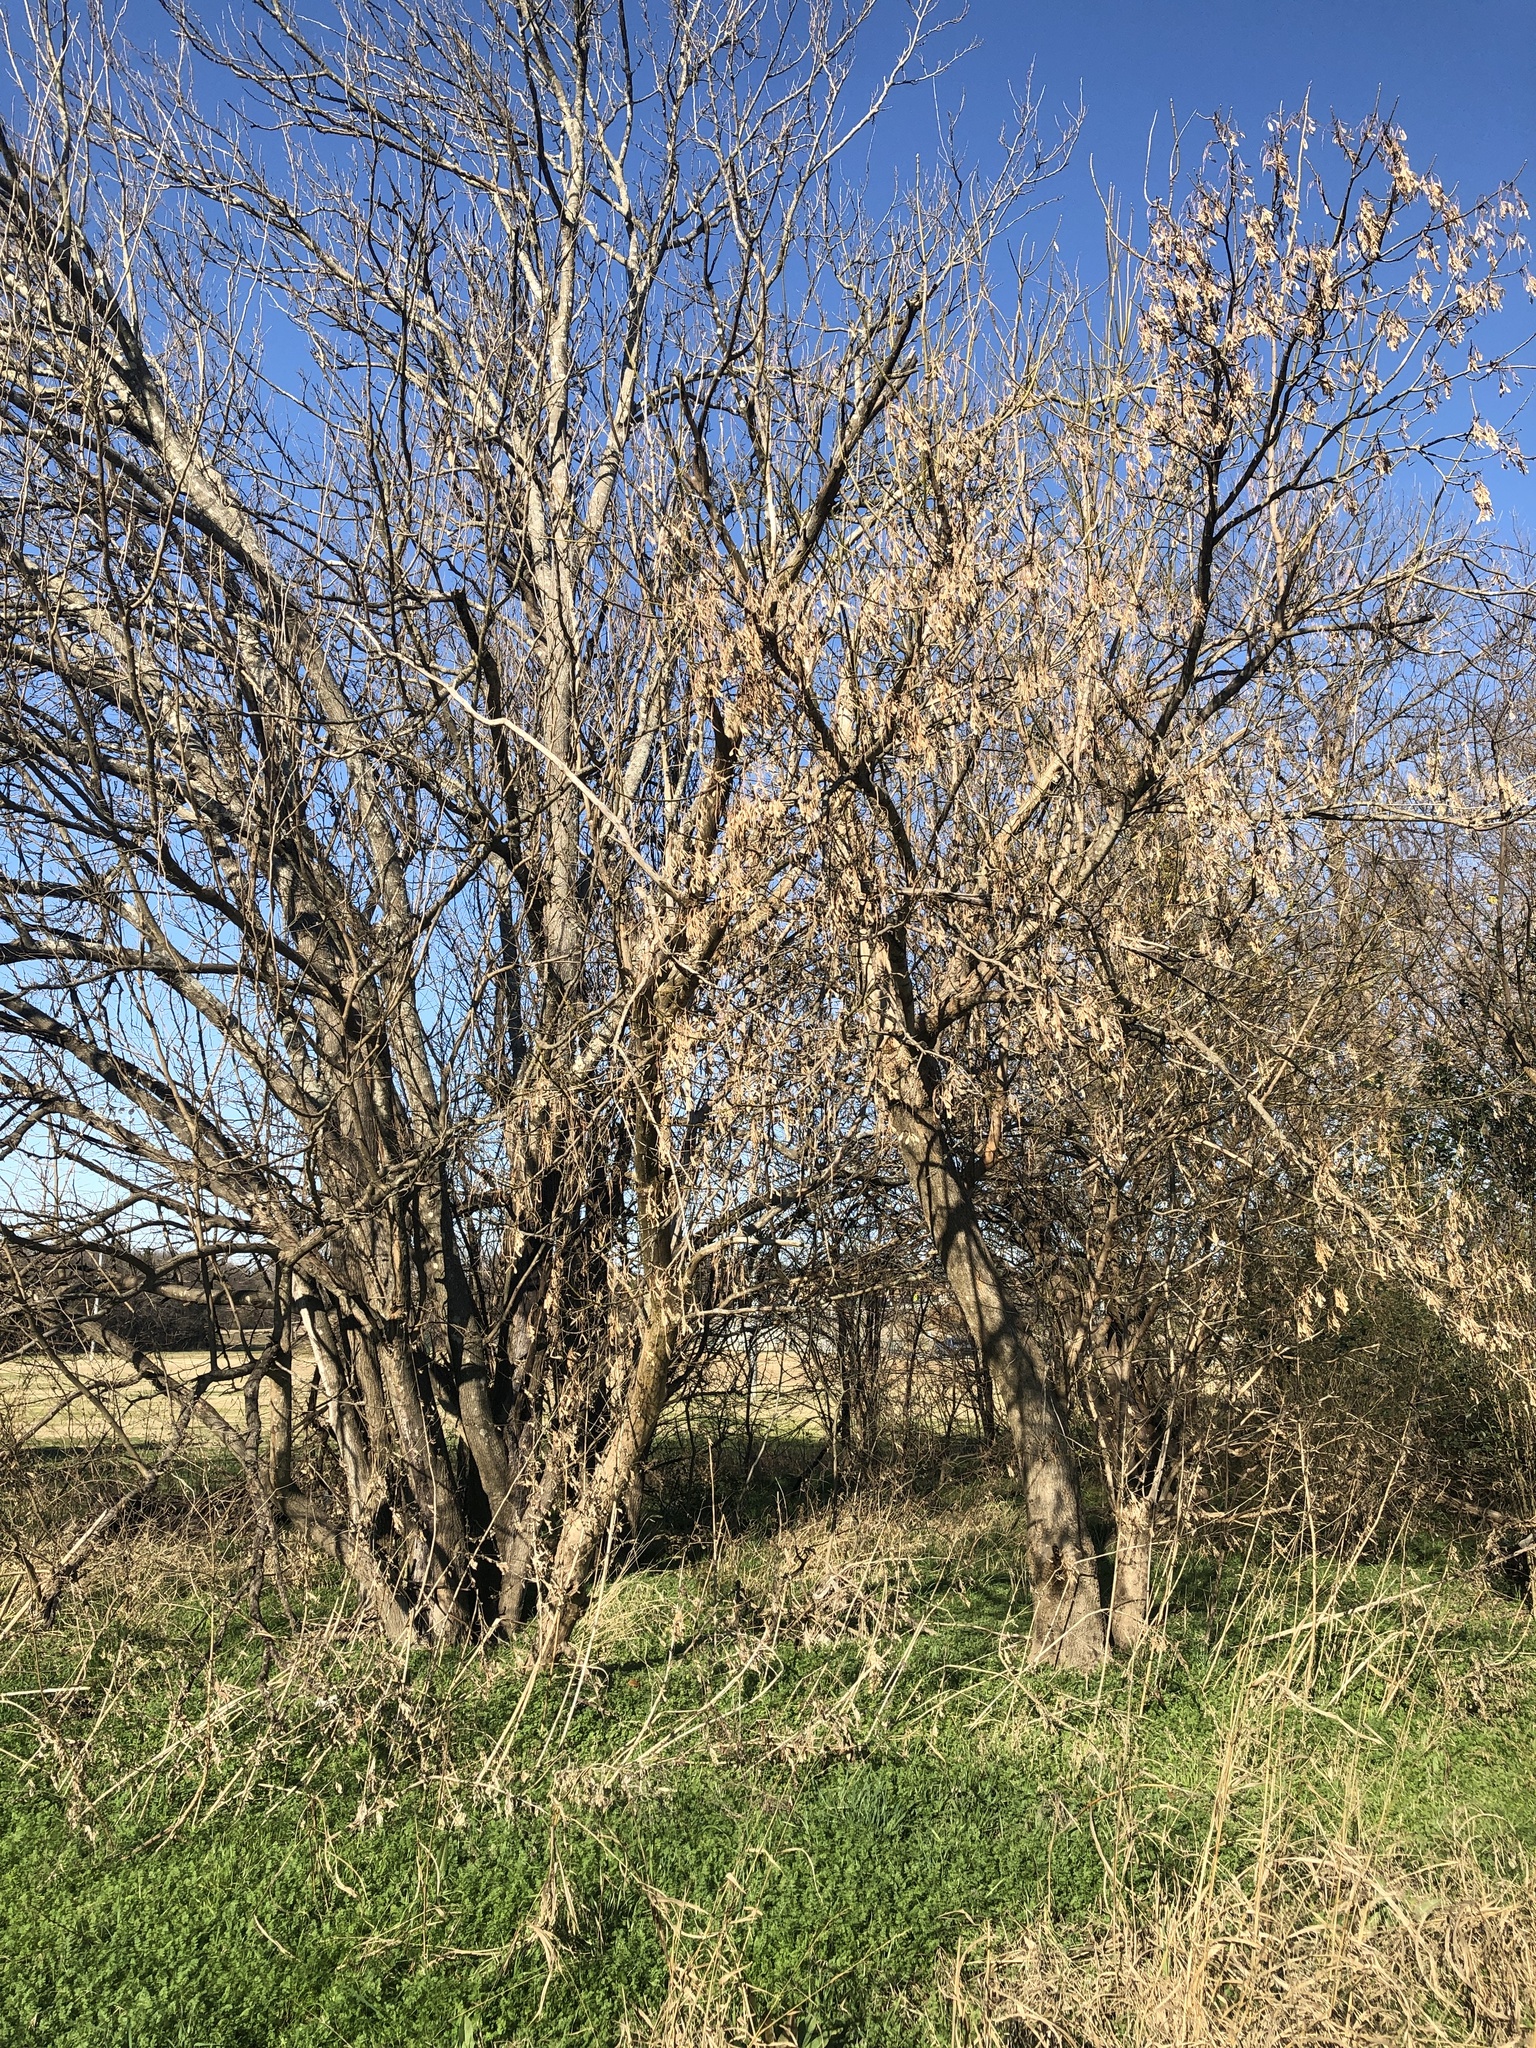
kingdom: Plantae
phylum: Tracheophyta
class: Magnoliopsida
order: Sapindales
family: Sapindaceae
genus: Acer
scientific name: Acer negundo
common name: Ashleaf maple
